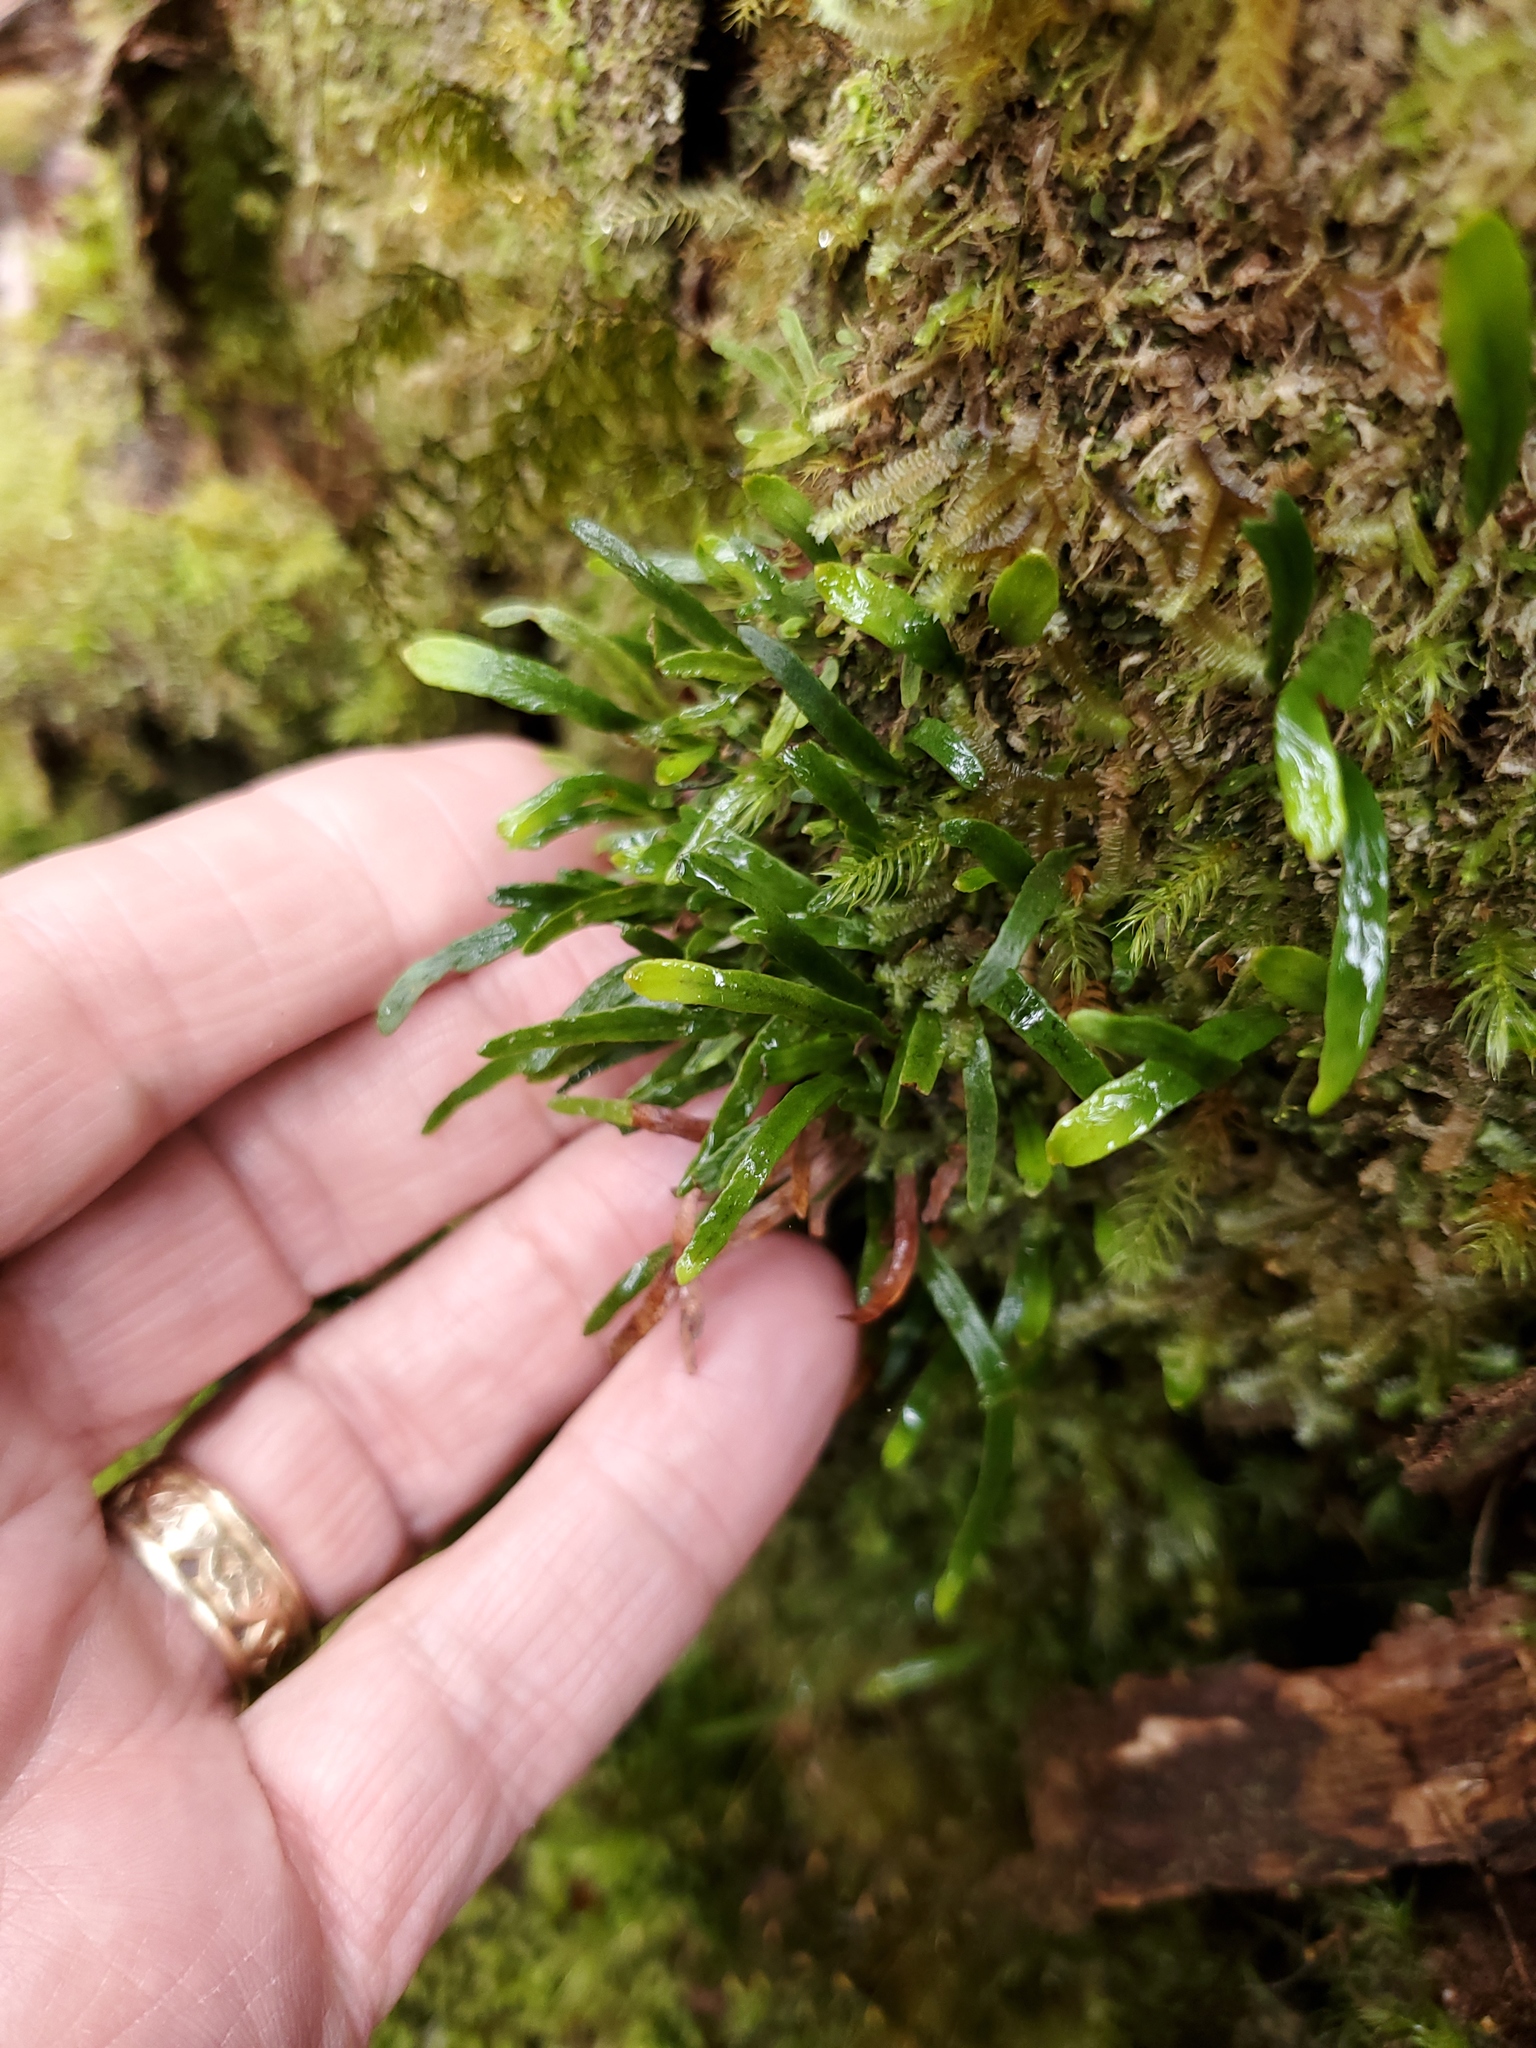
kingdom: Plantae
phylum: Tracheophyta
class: Polypodiopsida
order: Polypodiales
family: Polypodiaceae
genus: Adenophorus
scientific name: Adenophorus tenellus
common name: Kolokolo
